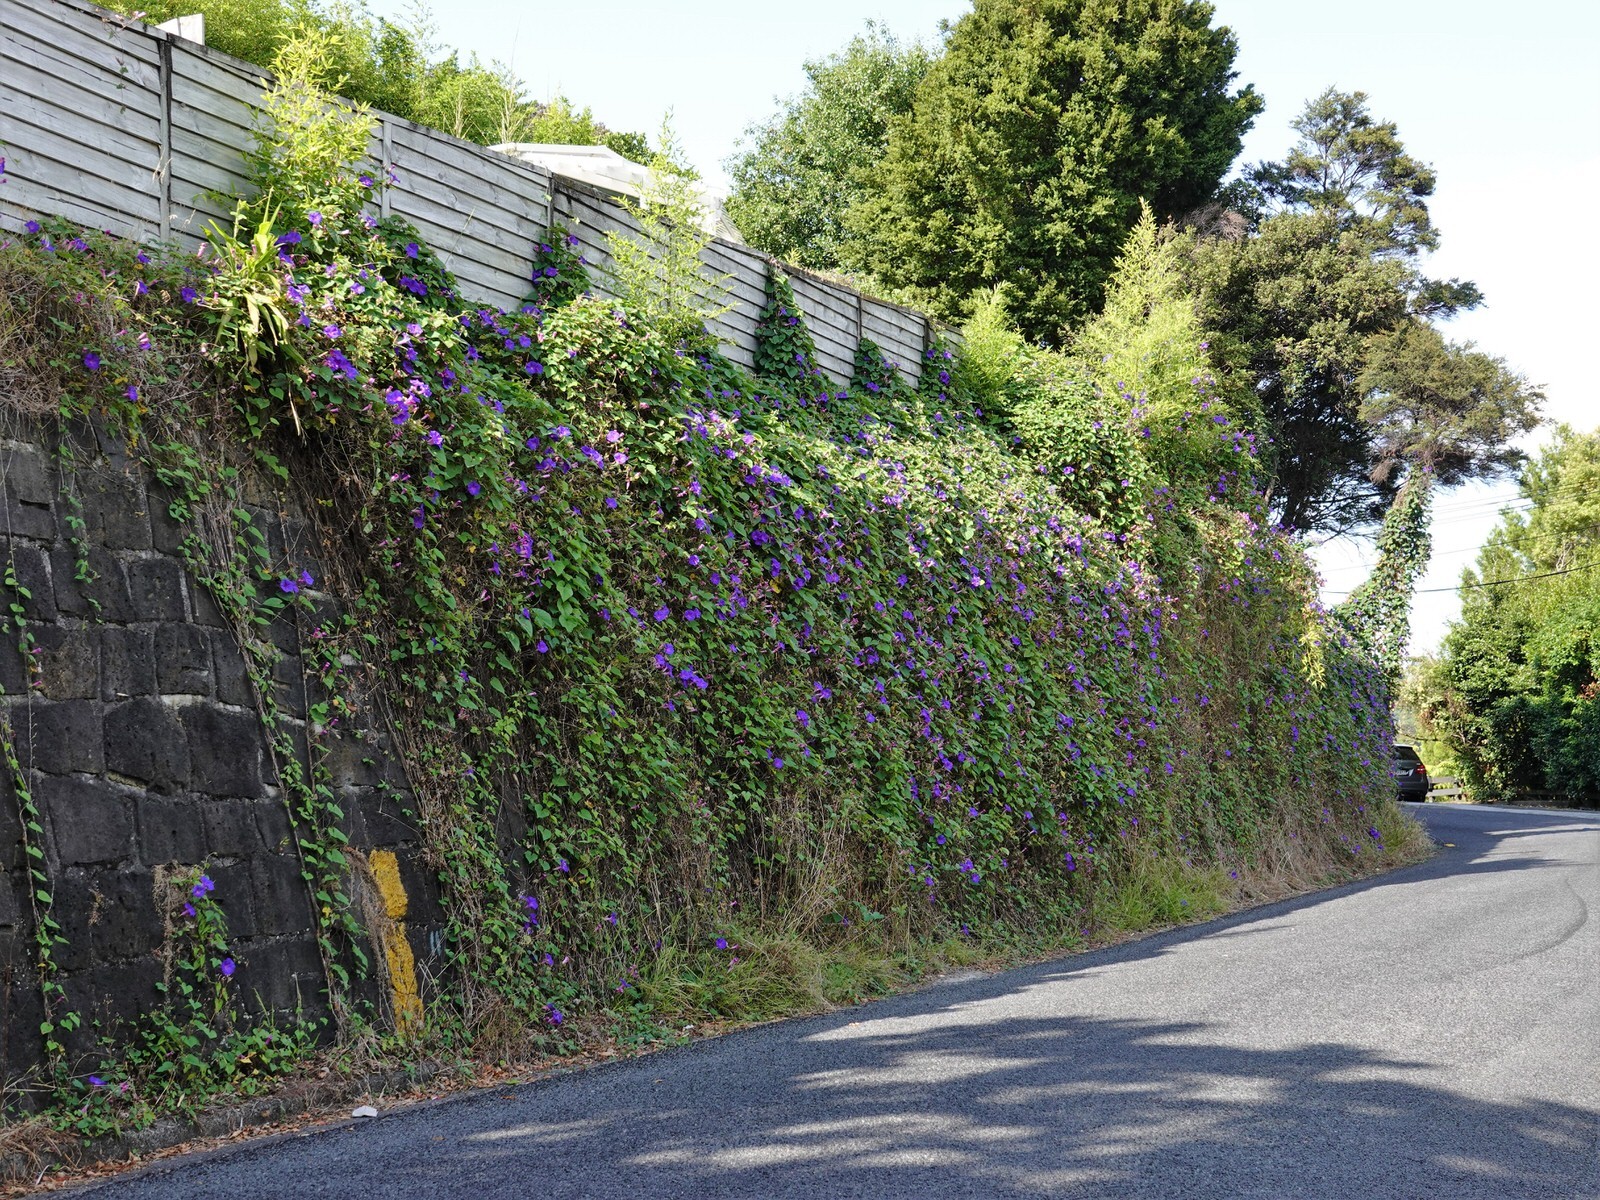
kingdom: Plantae
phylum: Tracheophyta
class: Magnoliopsida
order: Solanales
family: Convolvulaceae
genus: Ipomoea
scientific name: Ipomoea indica
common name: Blue dawnflower
